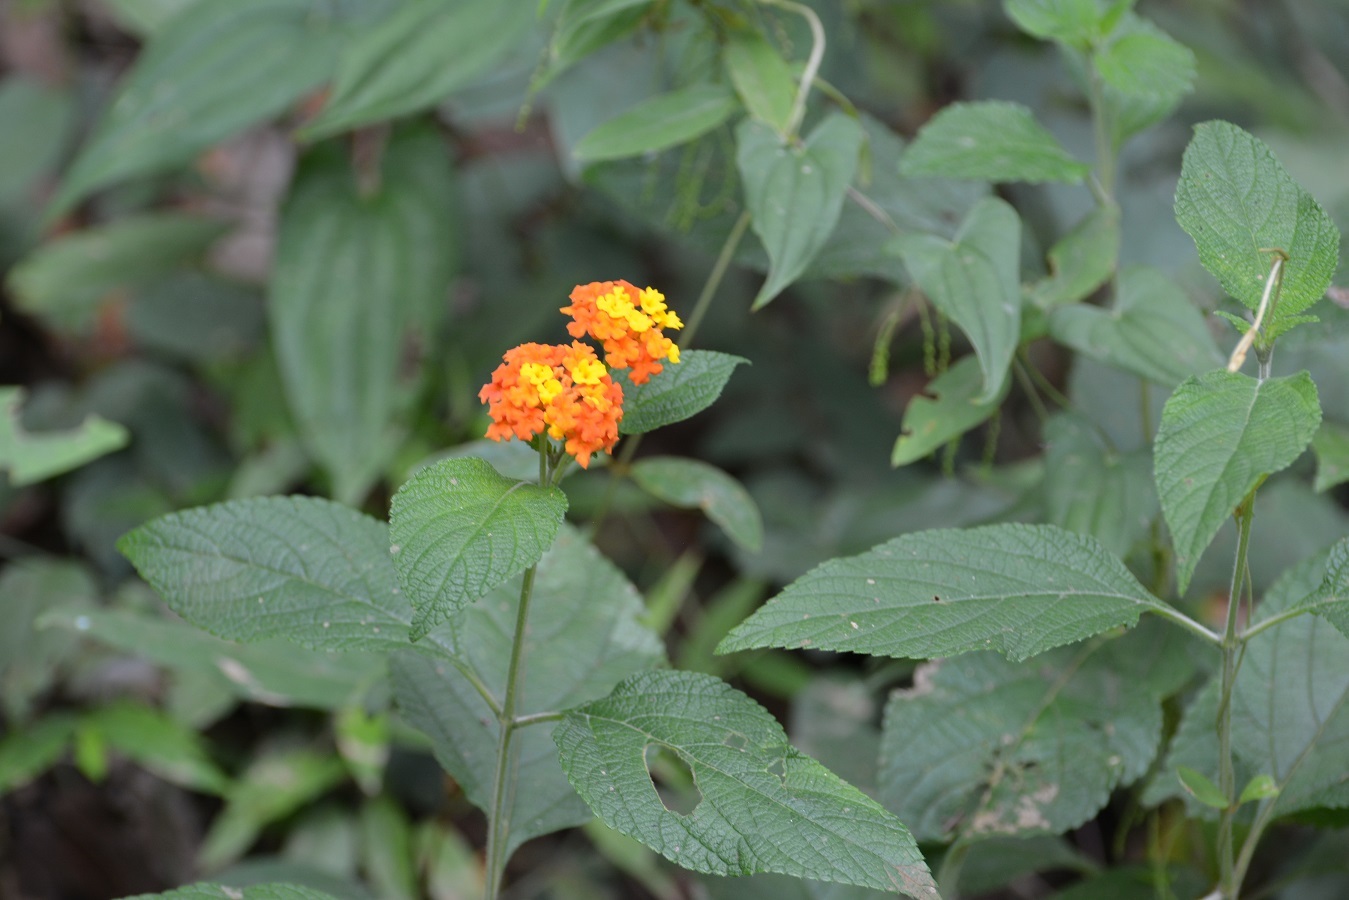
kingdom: Plantae
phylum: Tracheophyta
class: Magnoliopsida
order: Lamiales
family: Verbenaceae
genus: Lantana
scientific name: Lantana horrida
